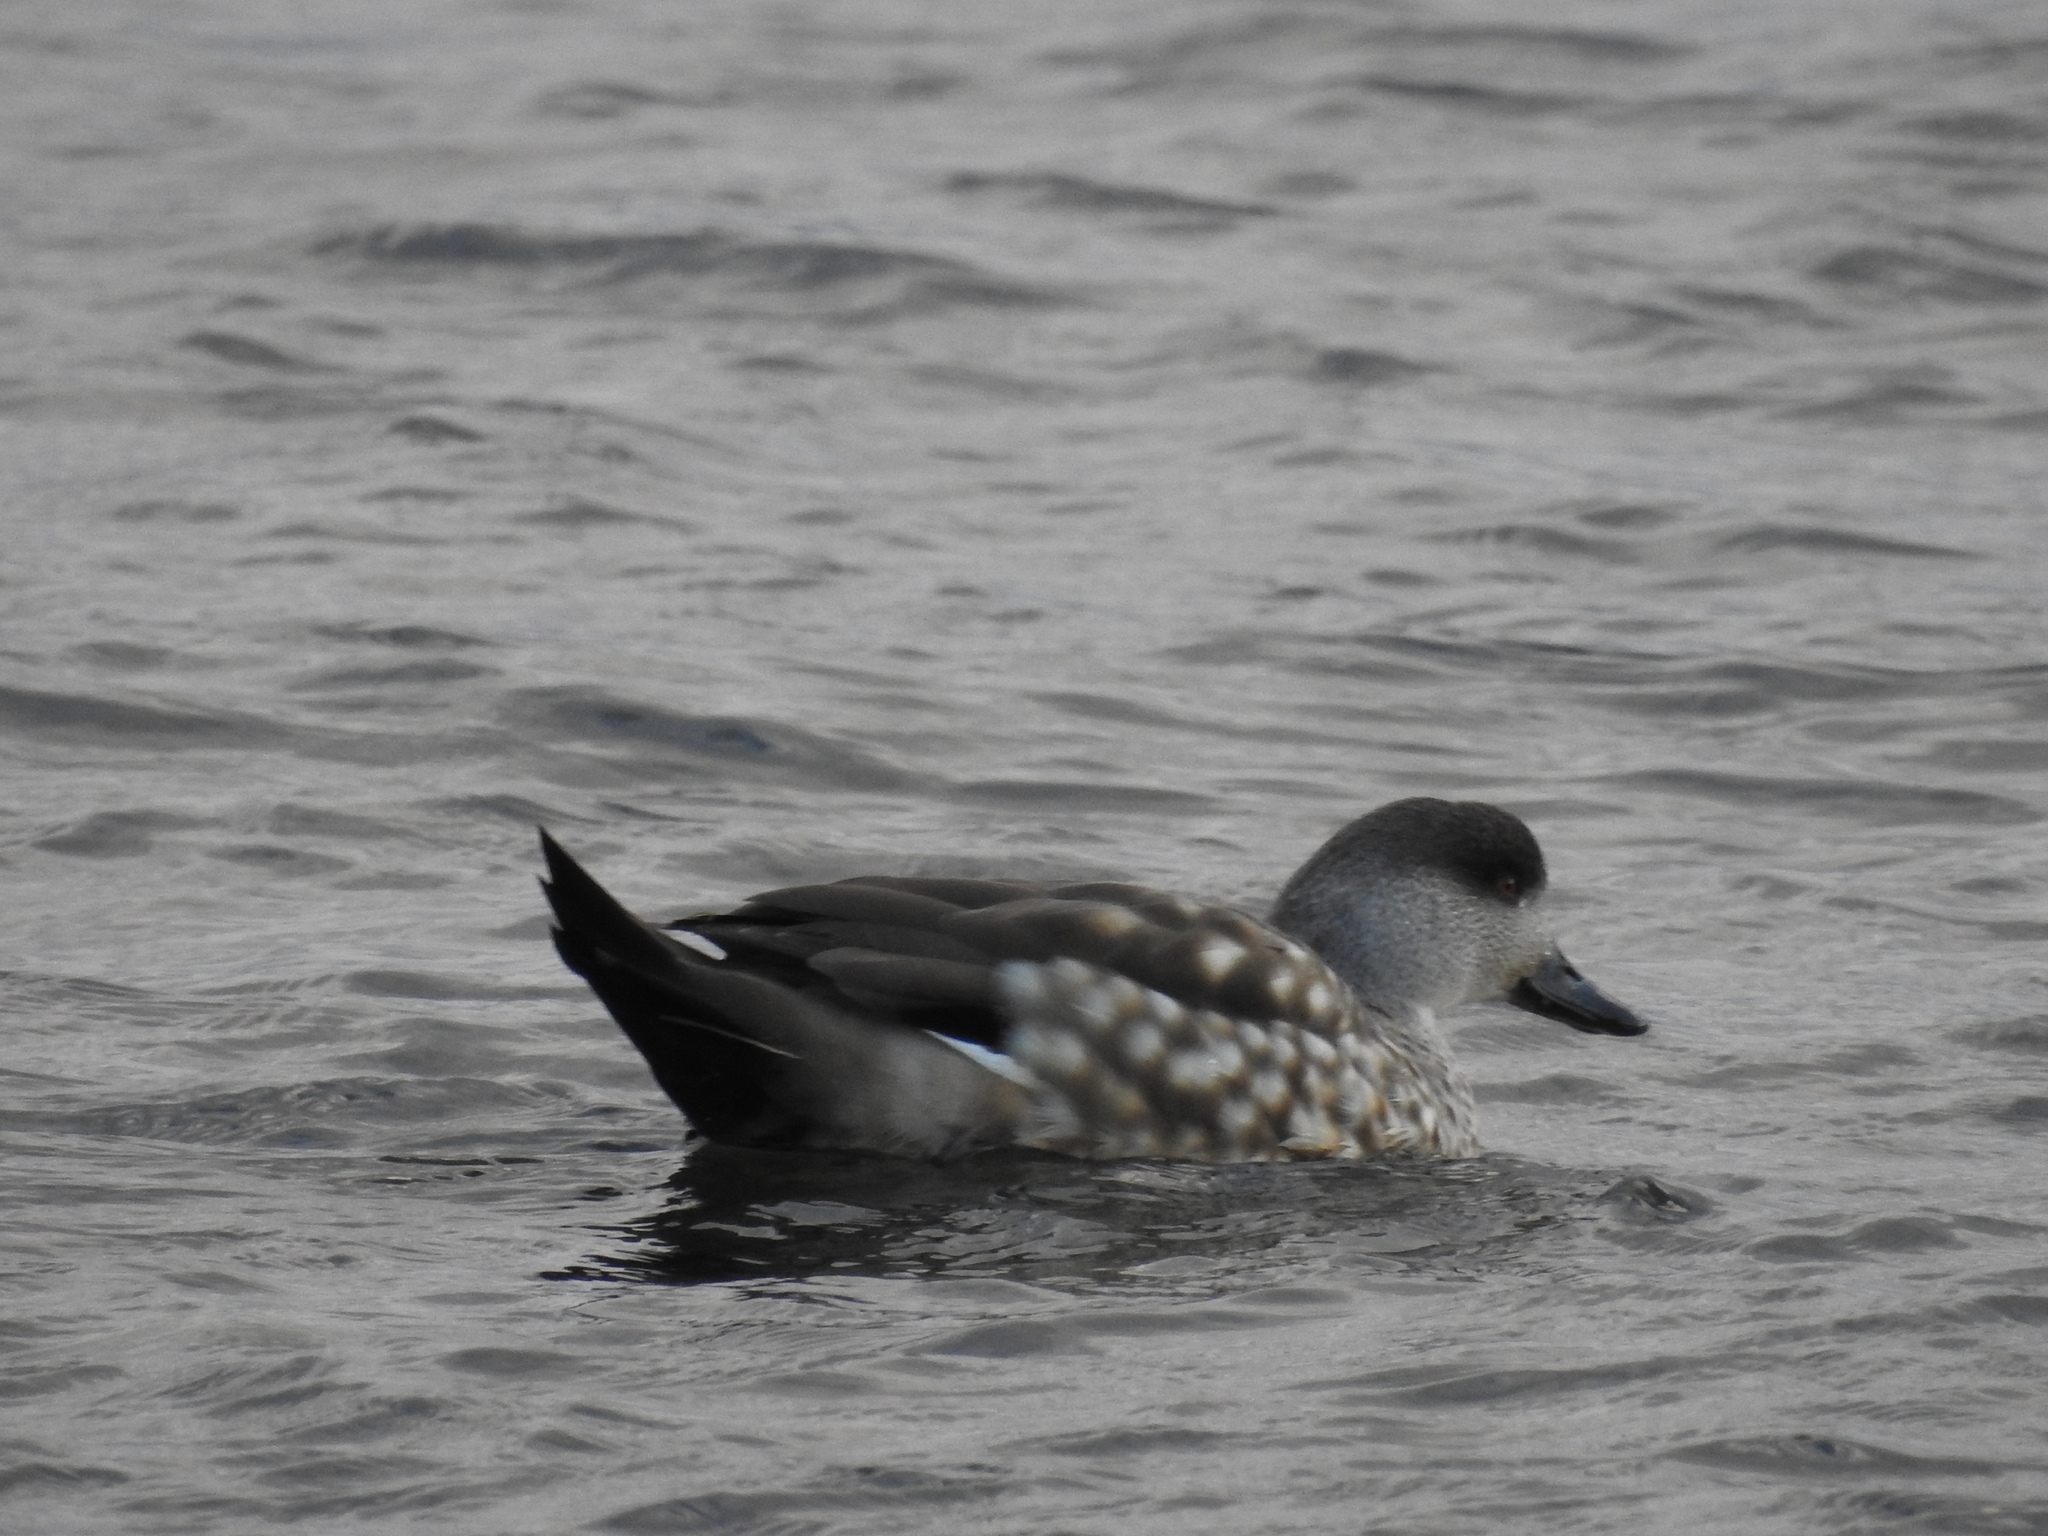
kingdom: Animalia
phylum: Chordata
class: Aves
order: Anseriformes
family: Anatidae
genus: Lophonetta
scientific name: Lophonetta specularioides
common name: Crested duck
